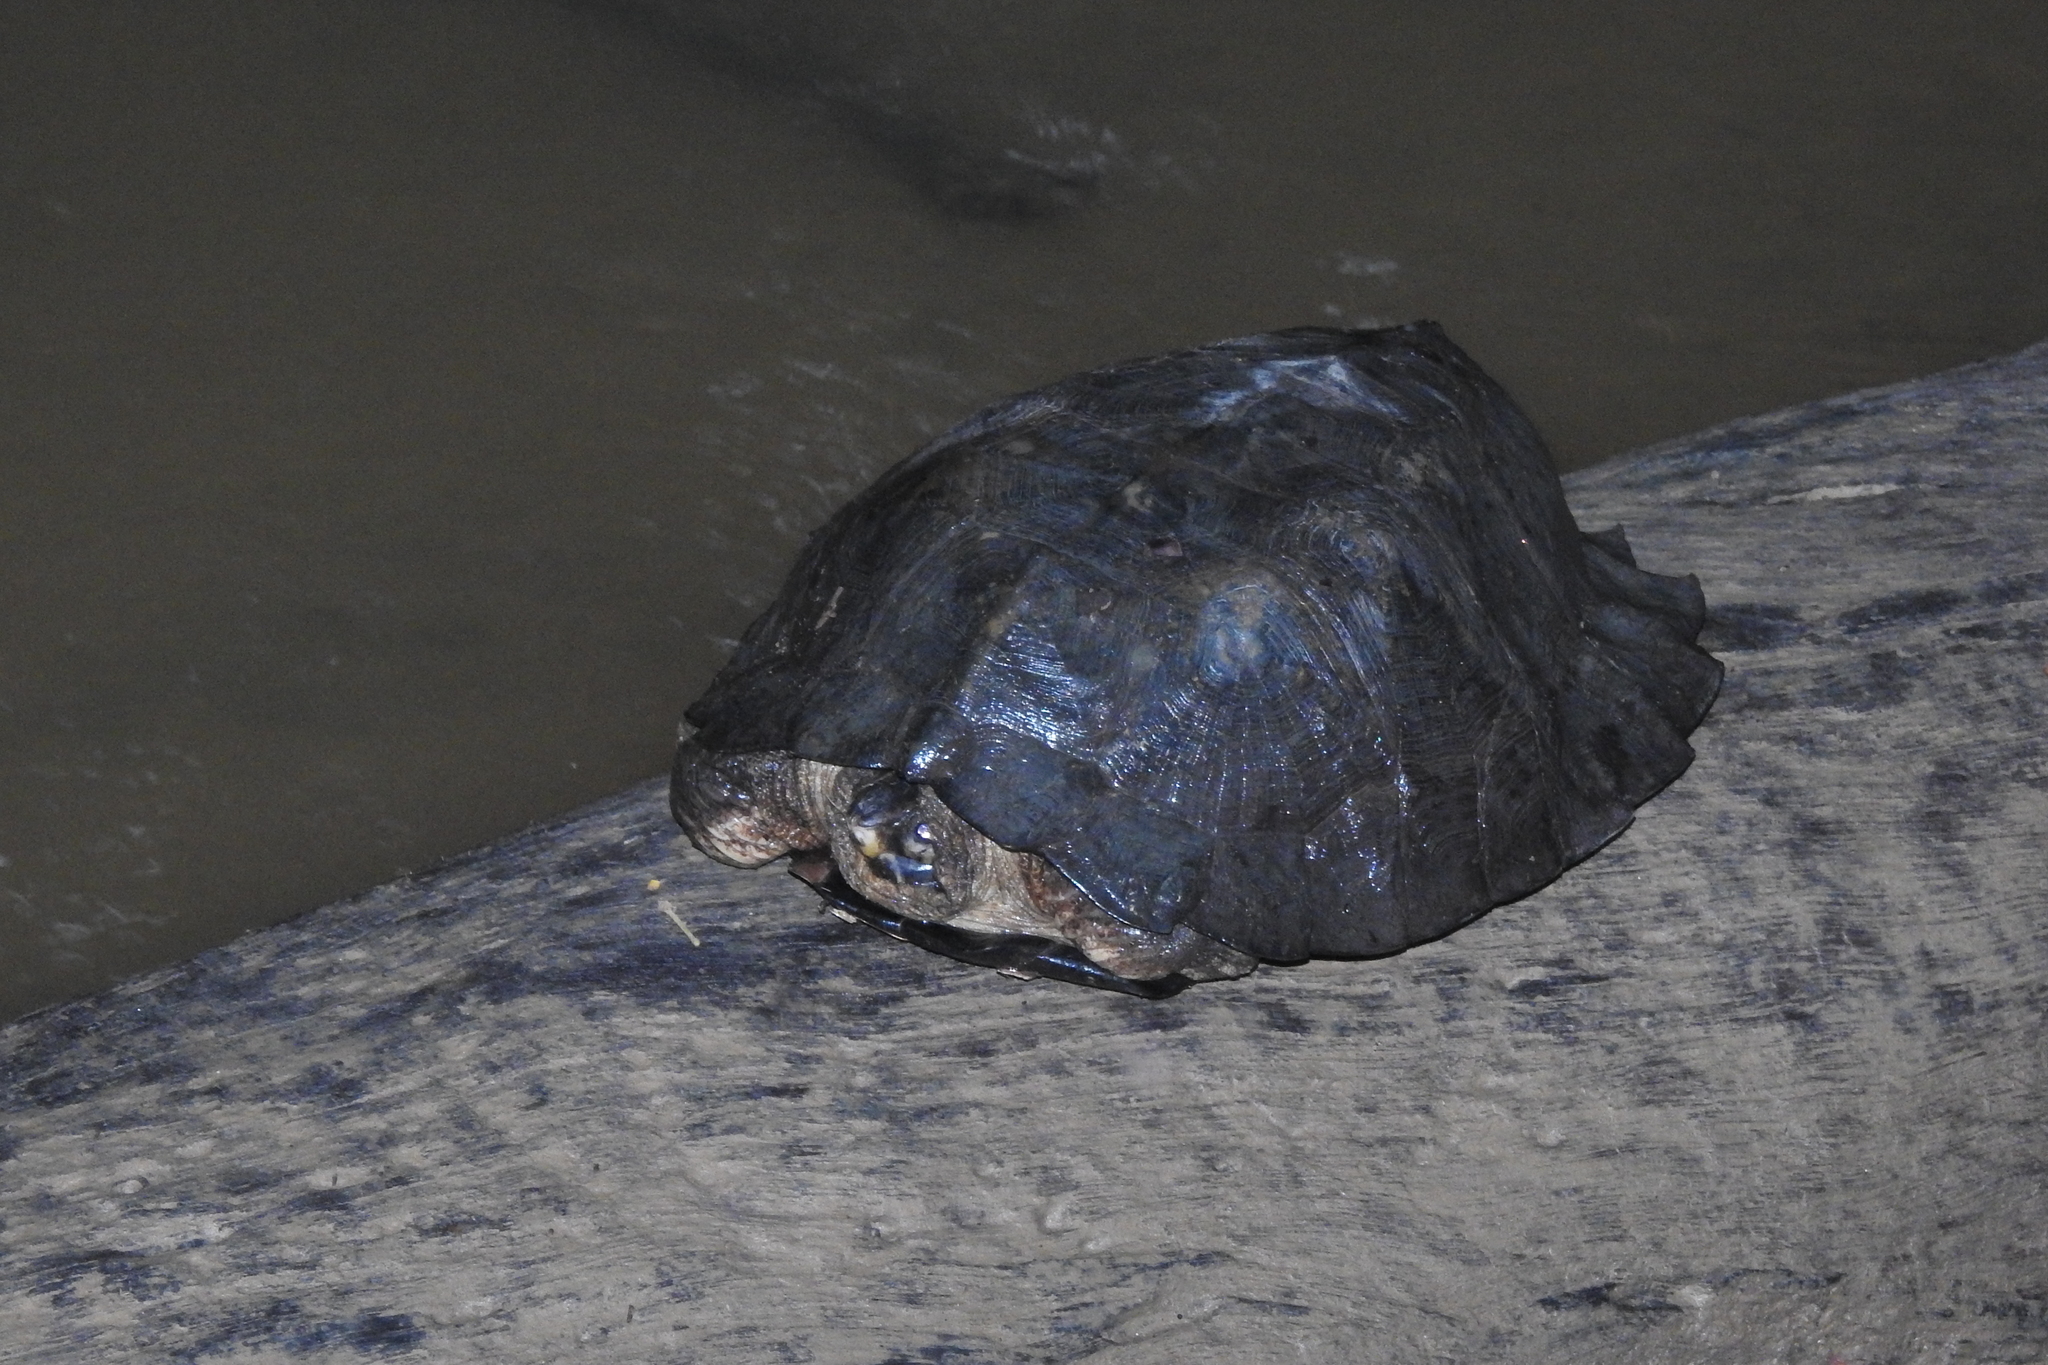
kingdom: Animalia
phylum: Chordata
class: Testudines
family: Geoemydidae
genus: Notochelys
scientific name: Notochelys platynota
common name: Malayan flat-shelled turtle
